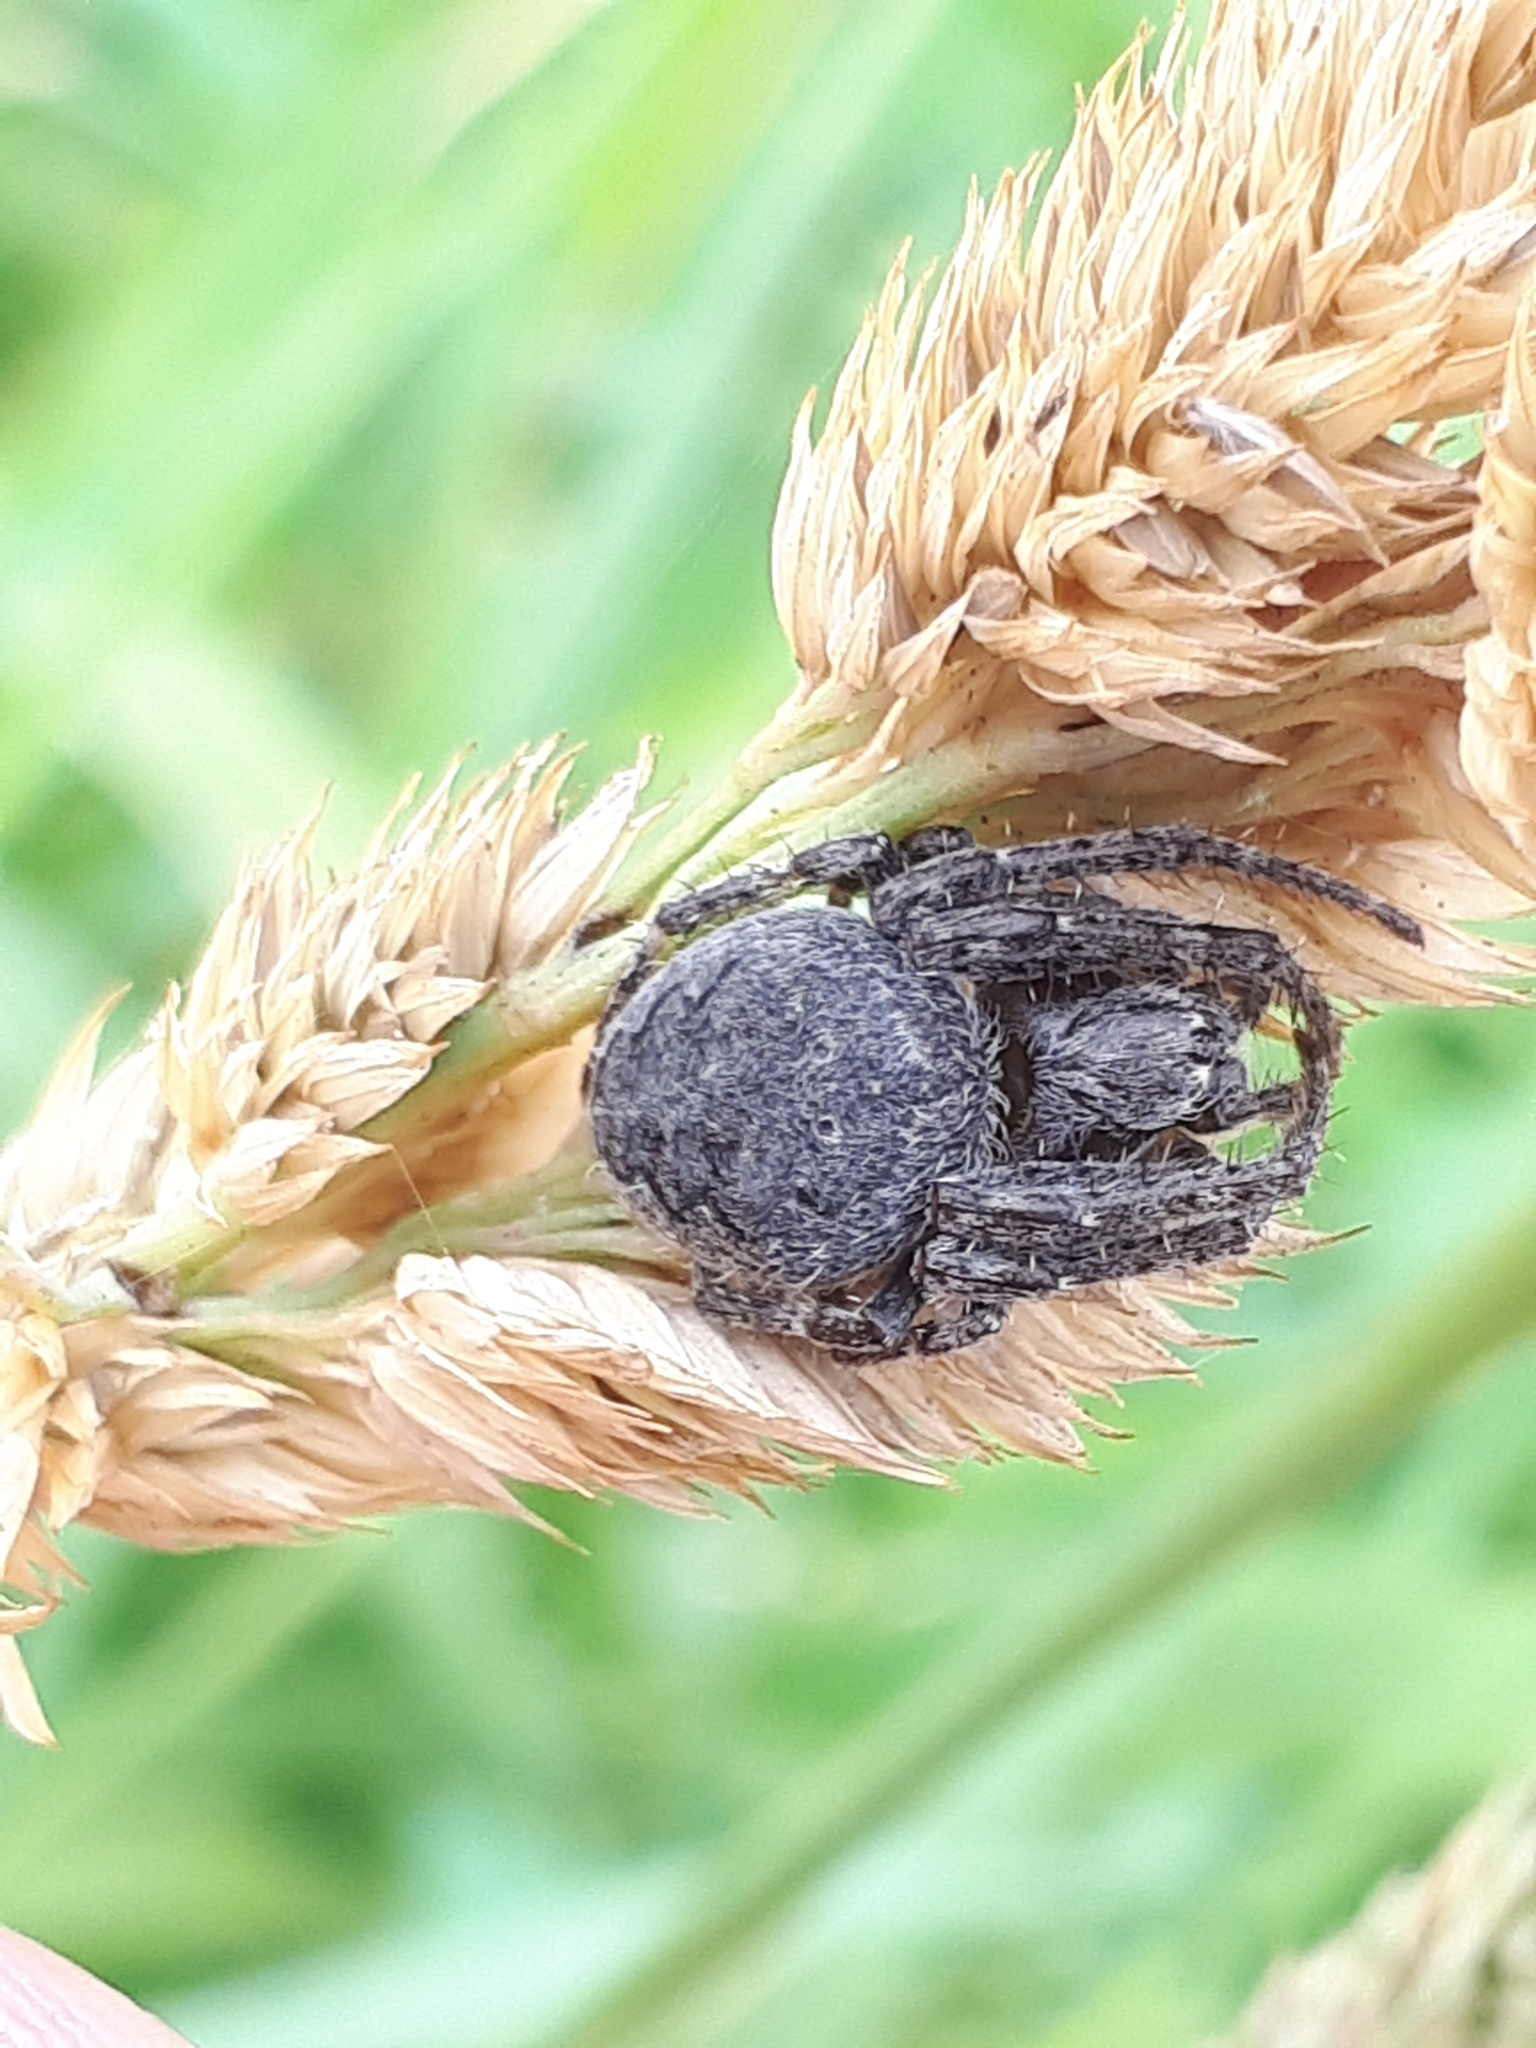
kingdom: Animalia
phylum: Arthropoda
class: Arachnida
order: Araneae
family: Araneidae
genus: Larinioides
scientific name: Larinioides ixobolus
